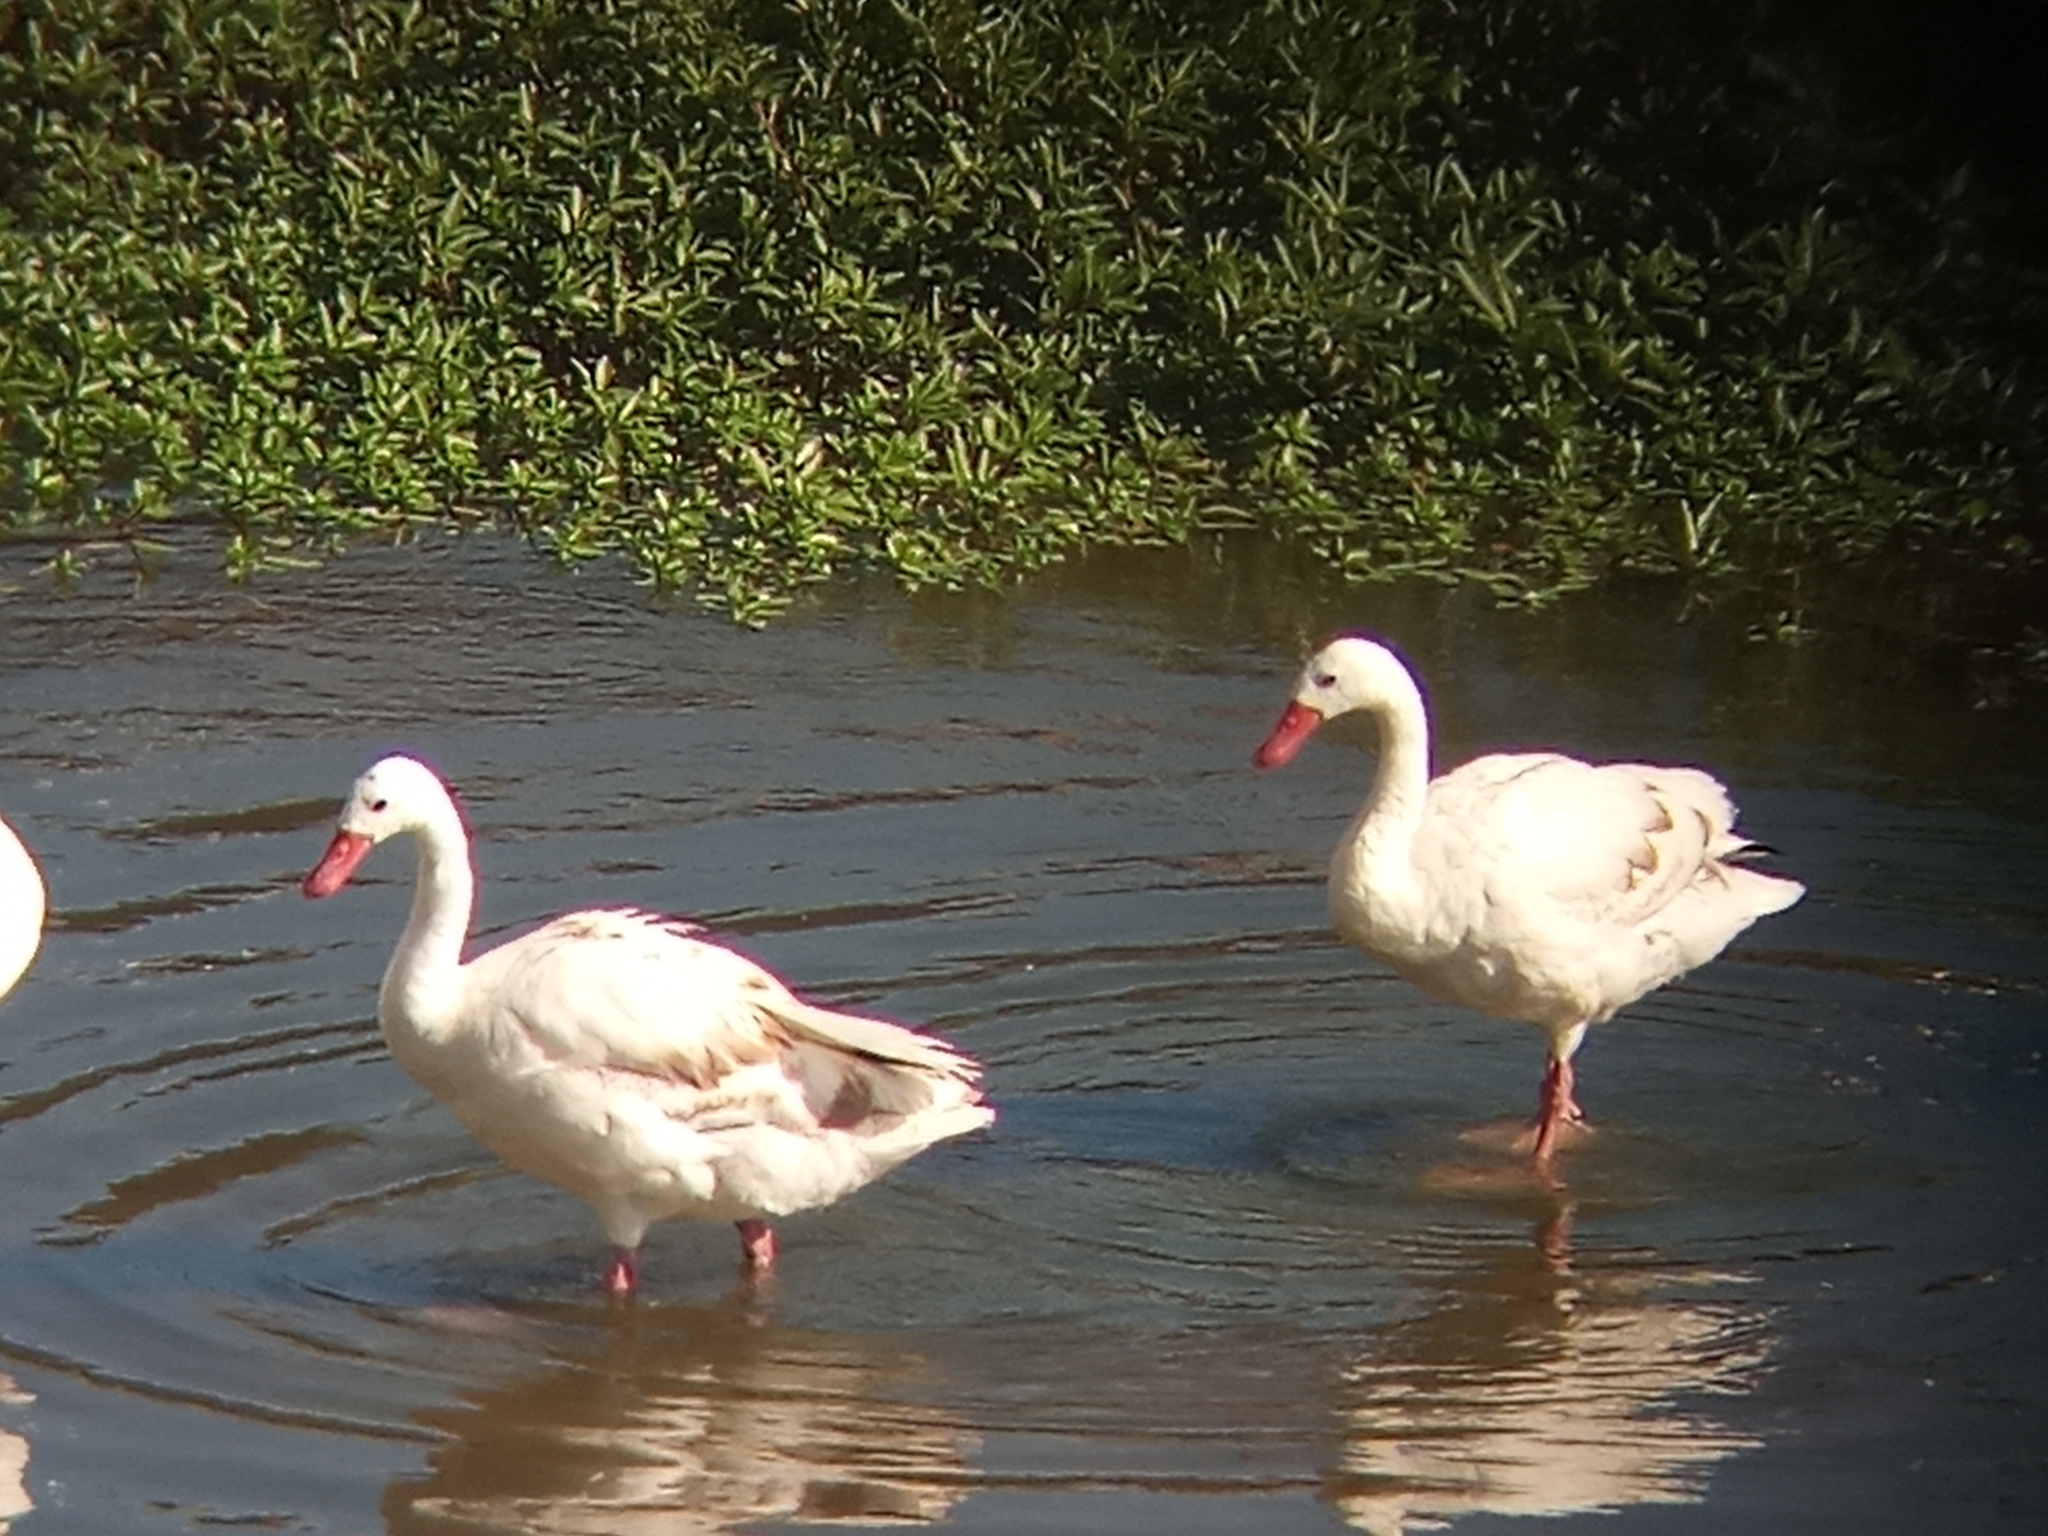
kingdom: Animalia
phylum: Chordata
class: Aves
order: Anseriformes
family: Anatidae
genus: Coscoroba
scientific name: Coscoroba coscoroba
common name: Coscoroba swan
